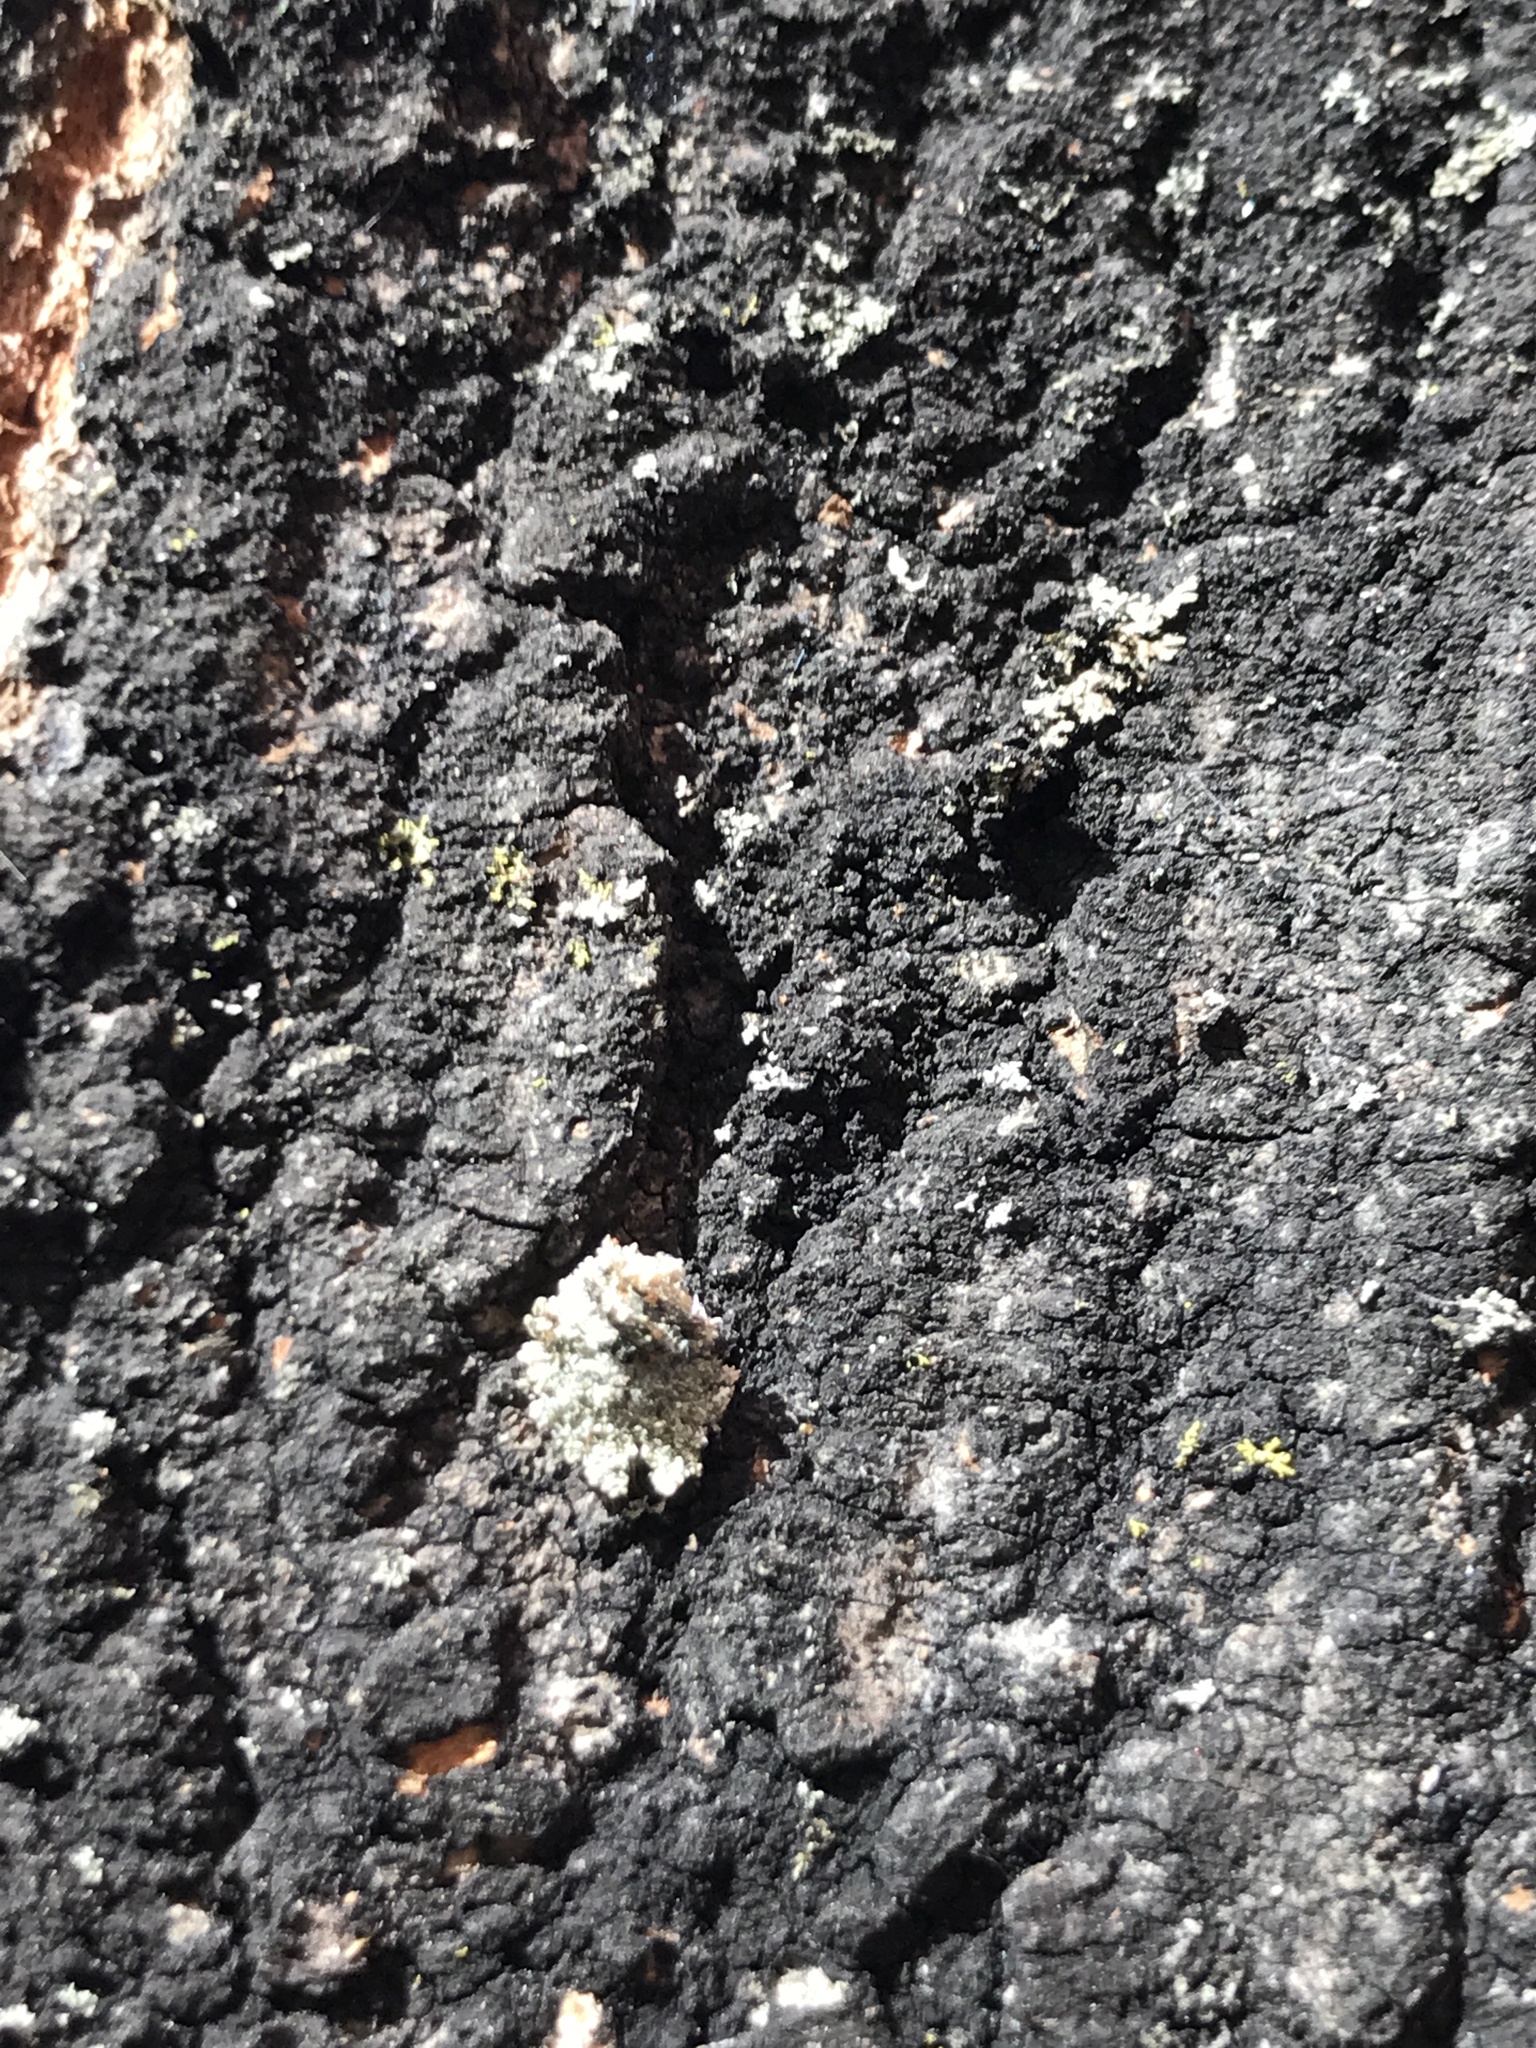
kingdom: Animalia
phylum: Arthropoda
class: Insecta
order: Neuroptera
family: Chrysopidae
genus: Leucochrysa
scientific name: Leucochrysa pavida
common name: Lichen-carrying green lacewing
